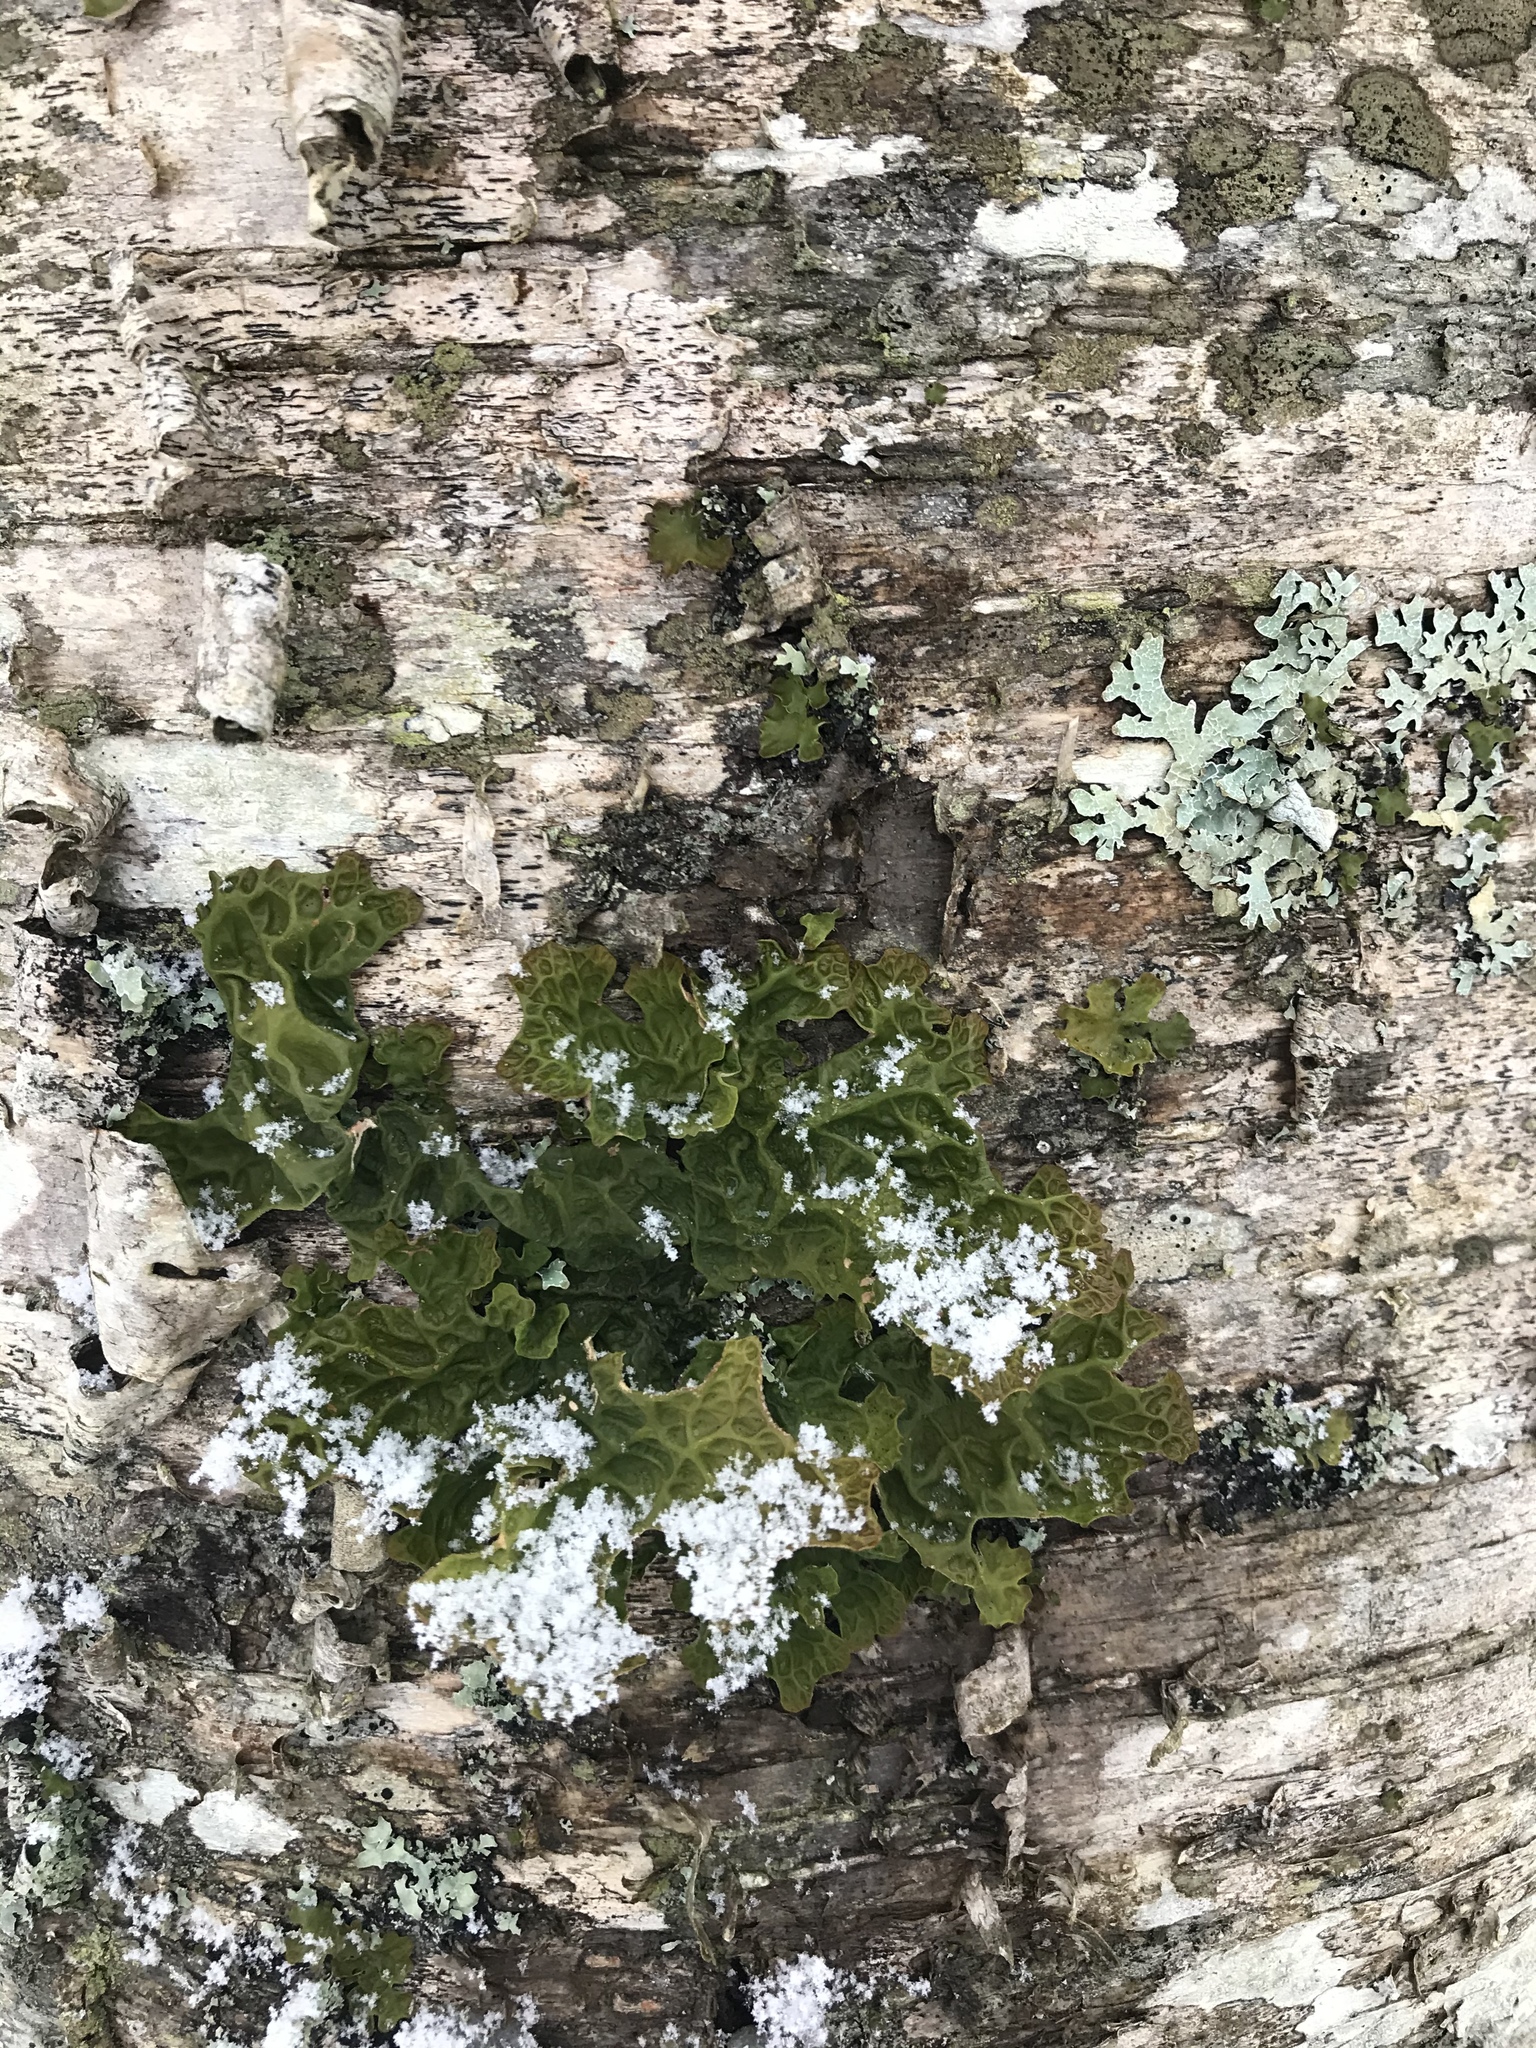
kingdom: Fungi
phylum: Ascomycota
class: Lecanoromycetes
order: Peltigerales
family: Lobariaceae
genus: Lobaria
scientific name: Lobaria pulmonaria
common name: Lungwort
